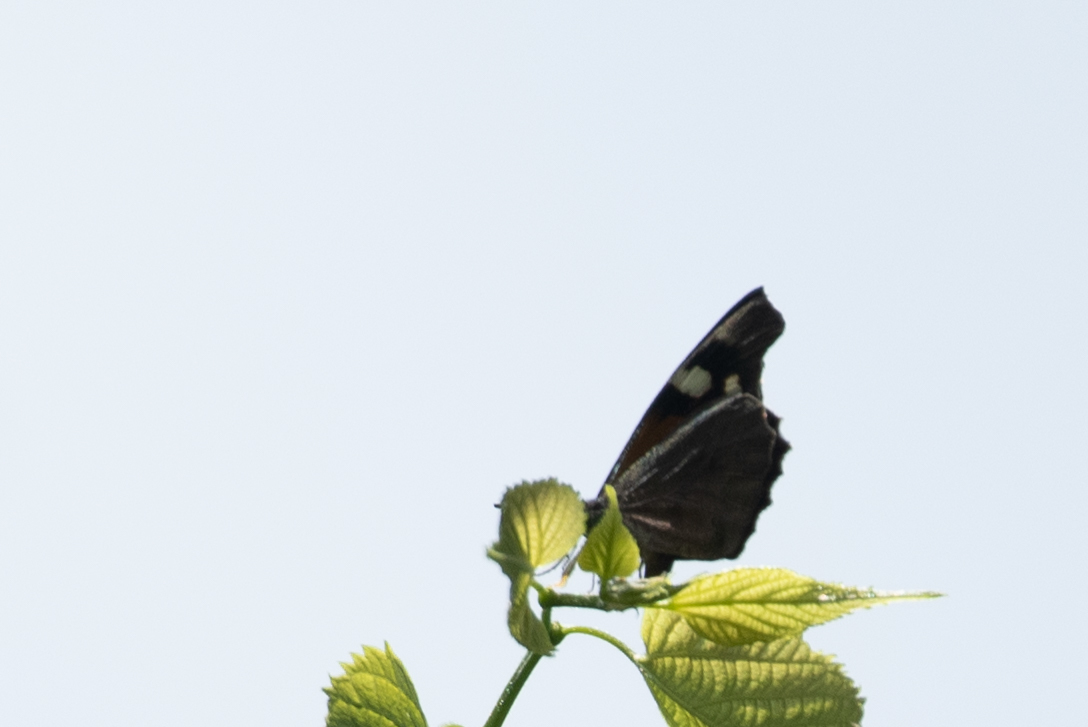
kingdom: Animalia
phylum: Arthropoda
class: Insecta
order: Lepidoptera
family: Nymphalidae
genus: Libytheana
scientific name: Libytheana carinenta
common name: American snout
